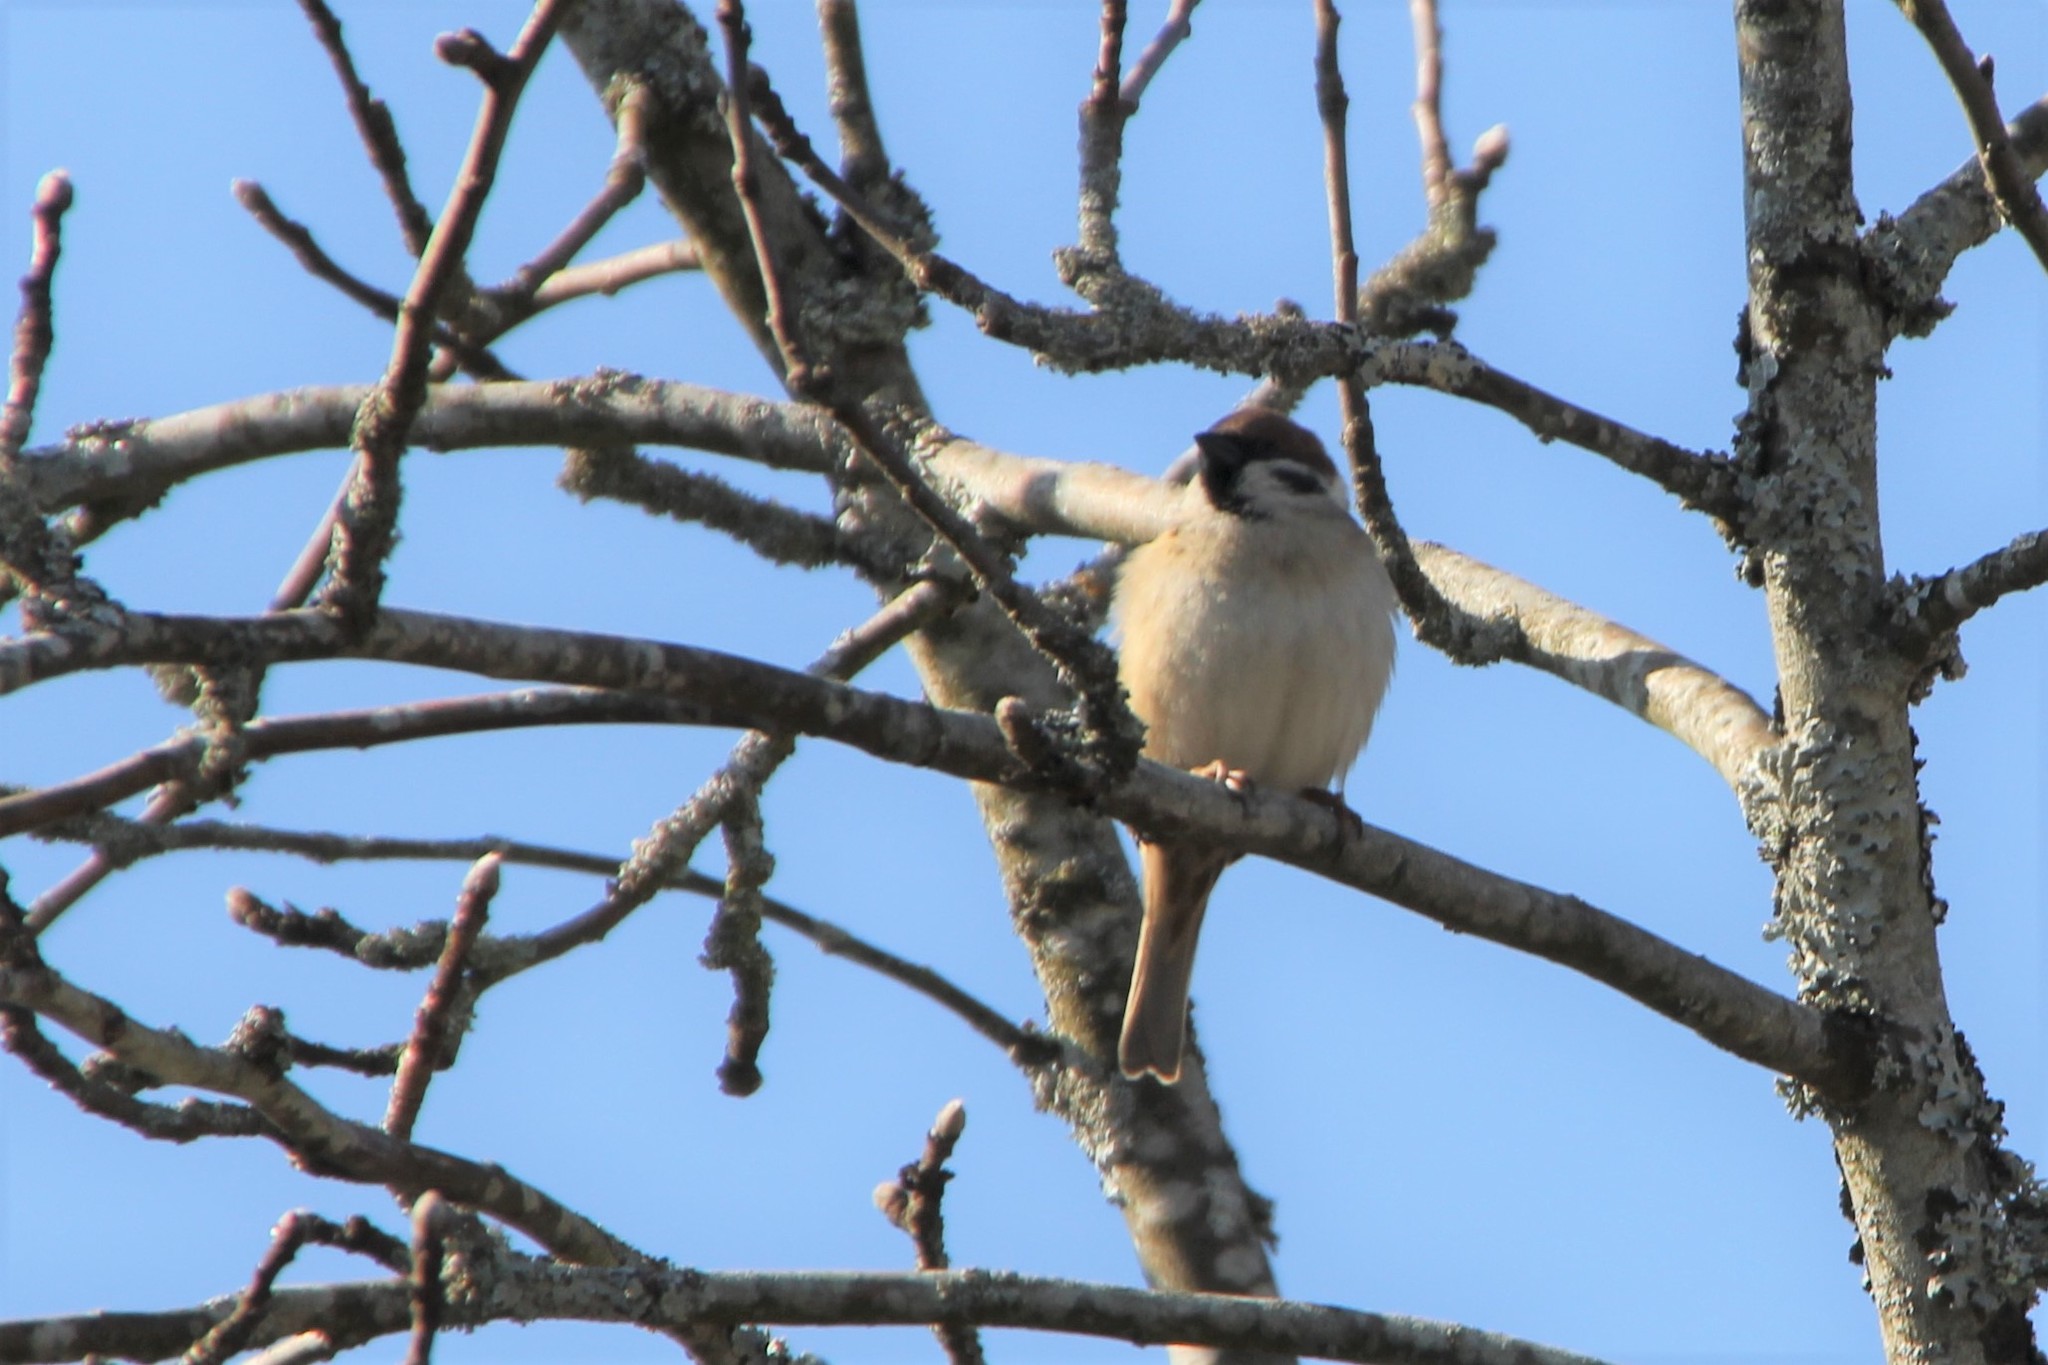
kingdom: Animalia
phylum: Chordata
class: Aves
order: Passeriformes
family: Passeridae
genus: Passer
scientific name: Passer montanus
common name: Eurasian tree sparrow
